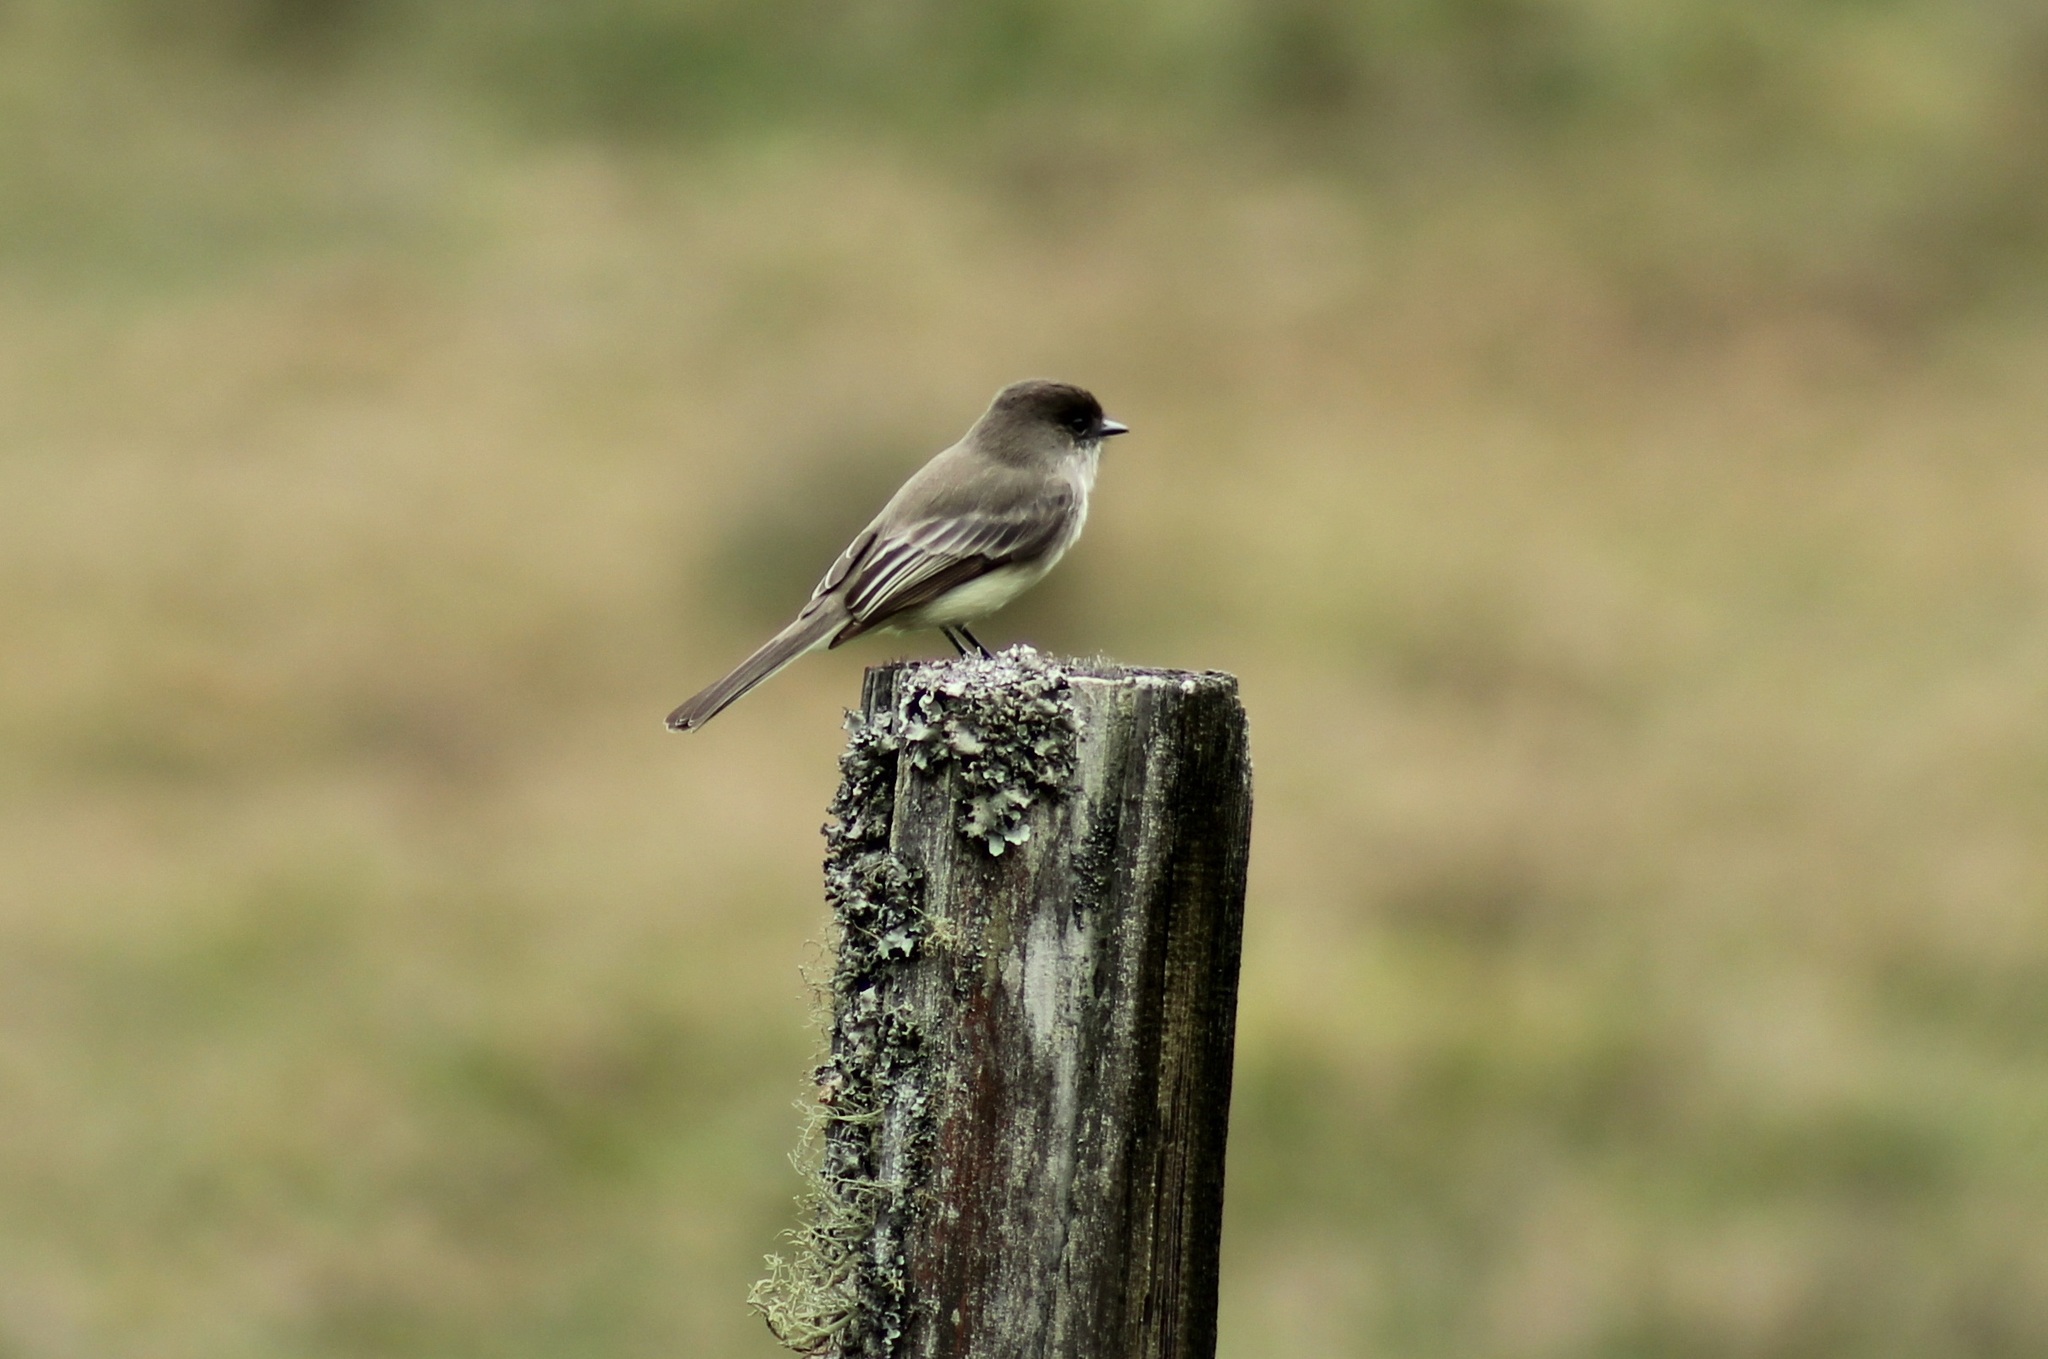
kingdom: Animalia
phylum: Chordata
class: Aves
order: Passeriformes
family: Tyrannidae
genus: Sayornis
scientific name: Sayornis phoebe
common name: Eastern phoebe
